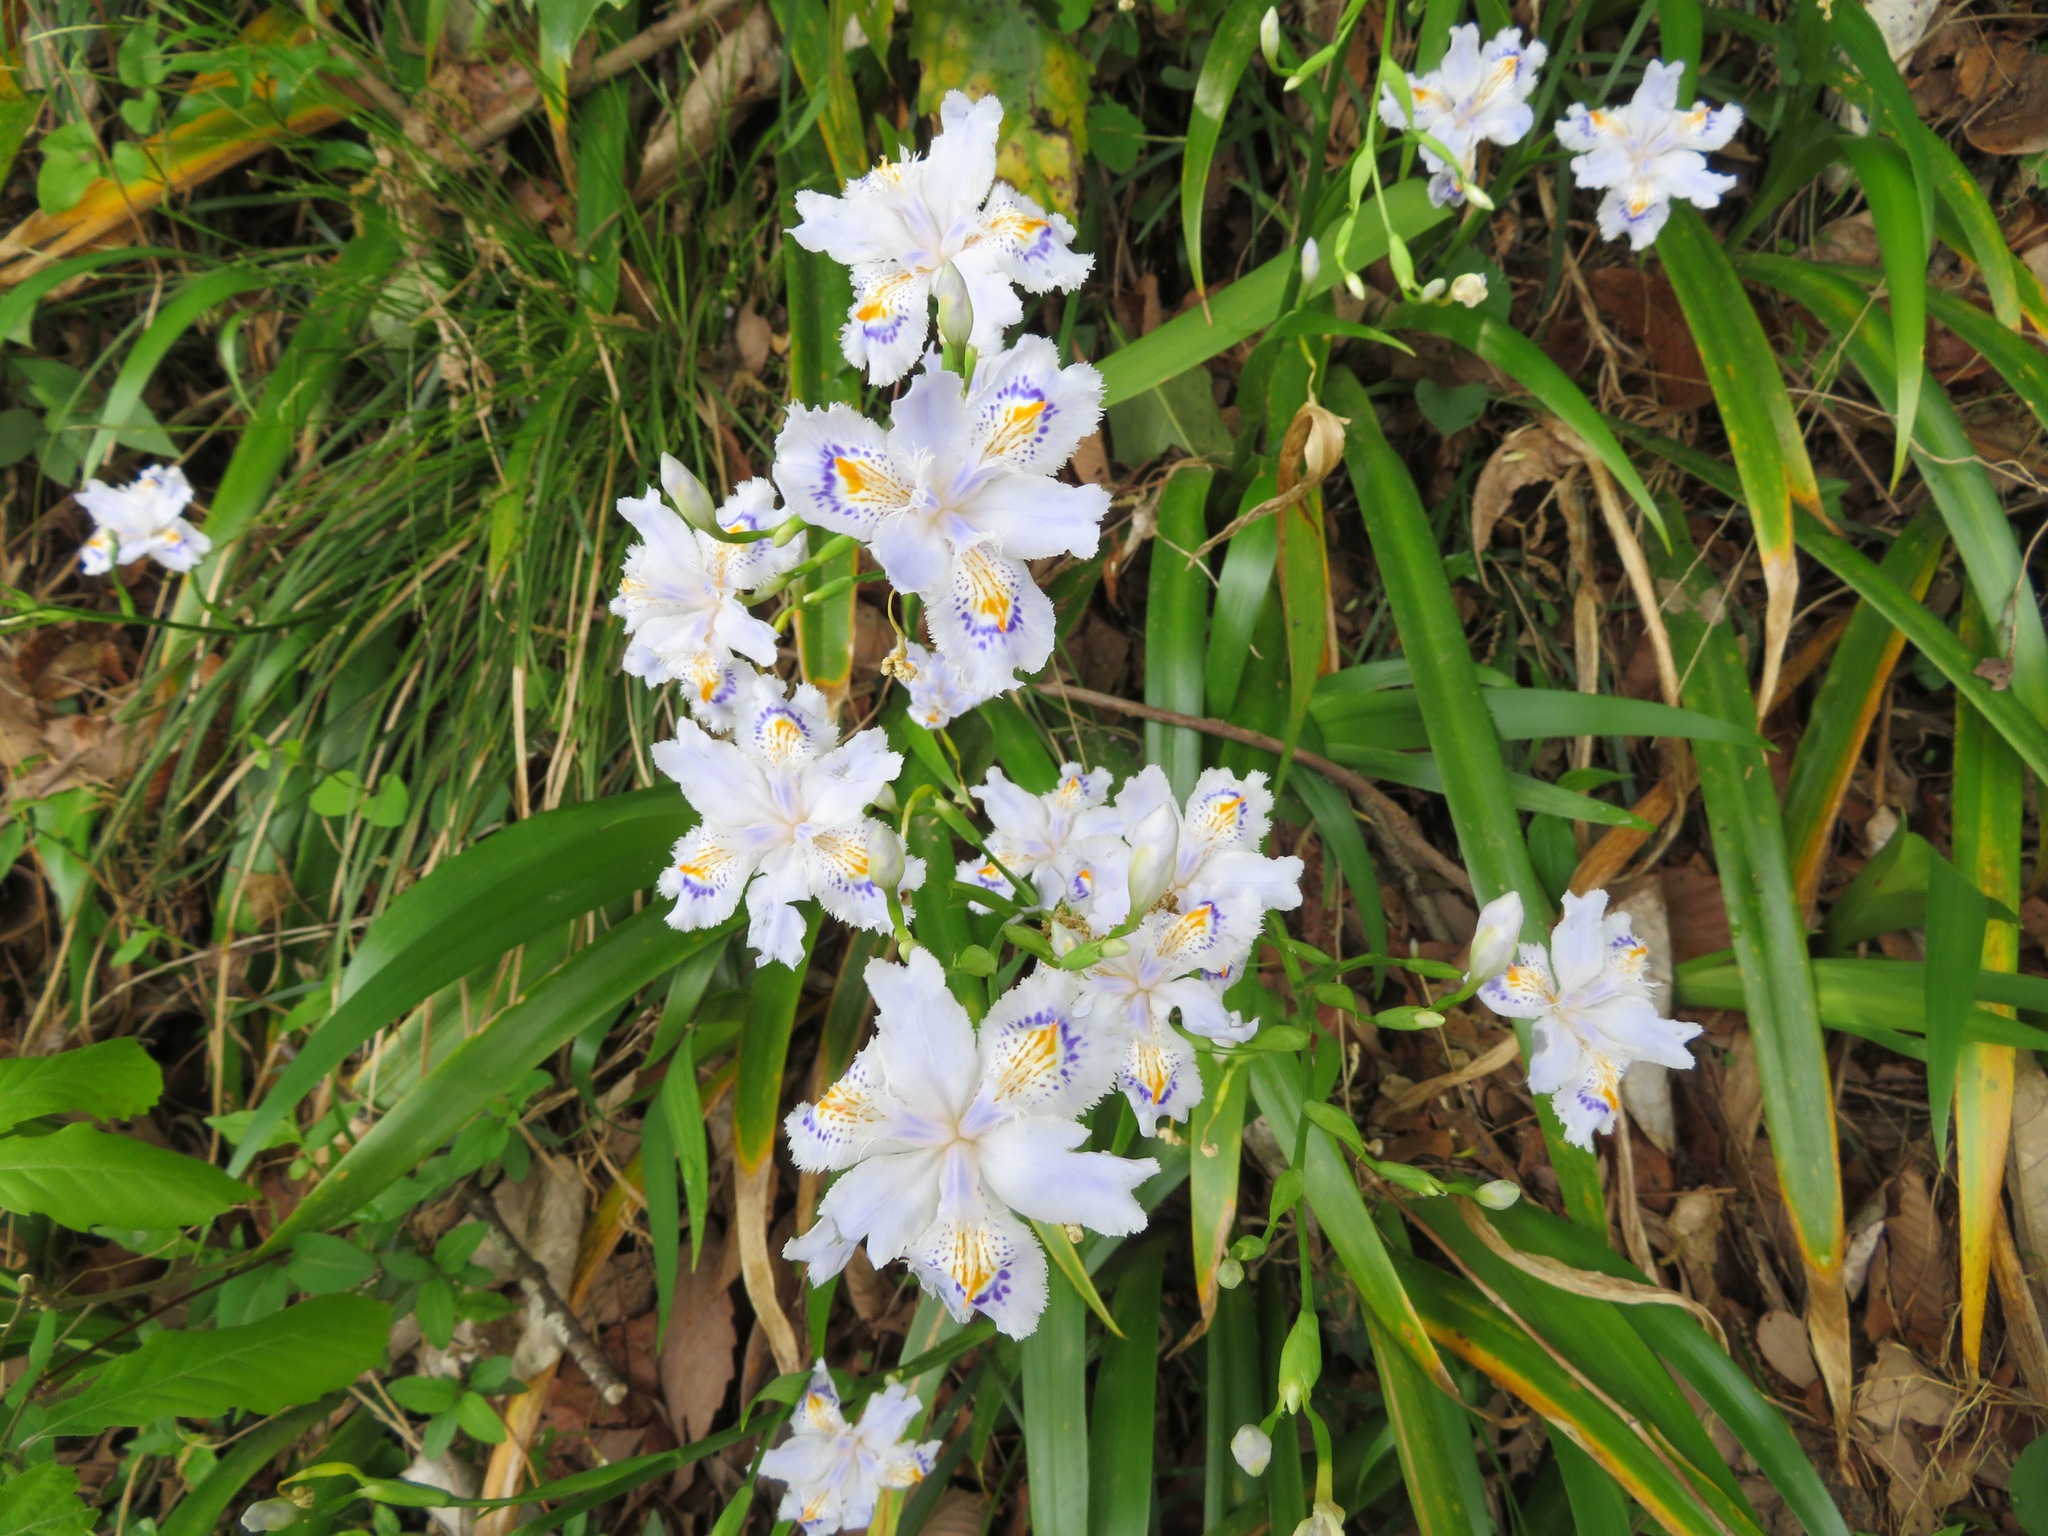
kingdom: Plantae
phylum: Tracheophyta
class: Liliopsida
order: Asparagales
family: Iridaceae
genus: Iris
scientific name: Iris japonica
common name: Butterfly-flower
